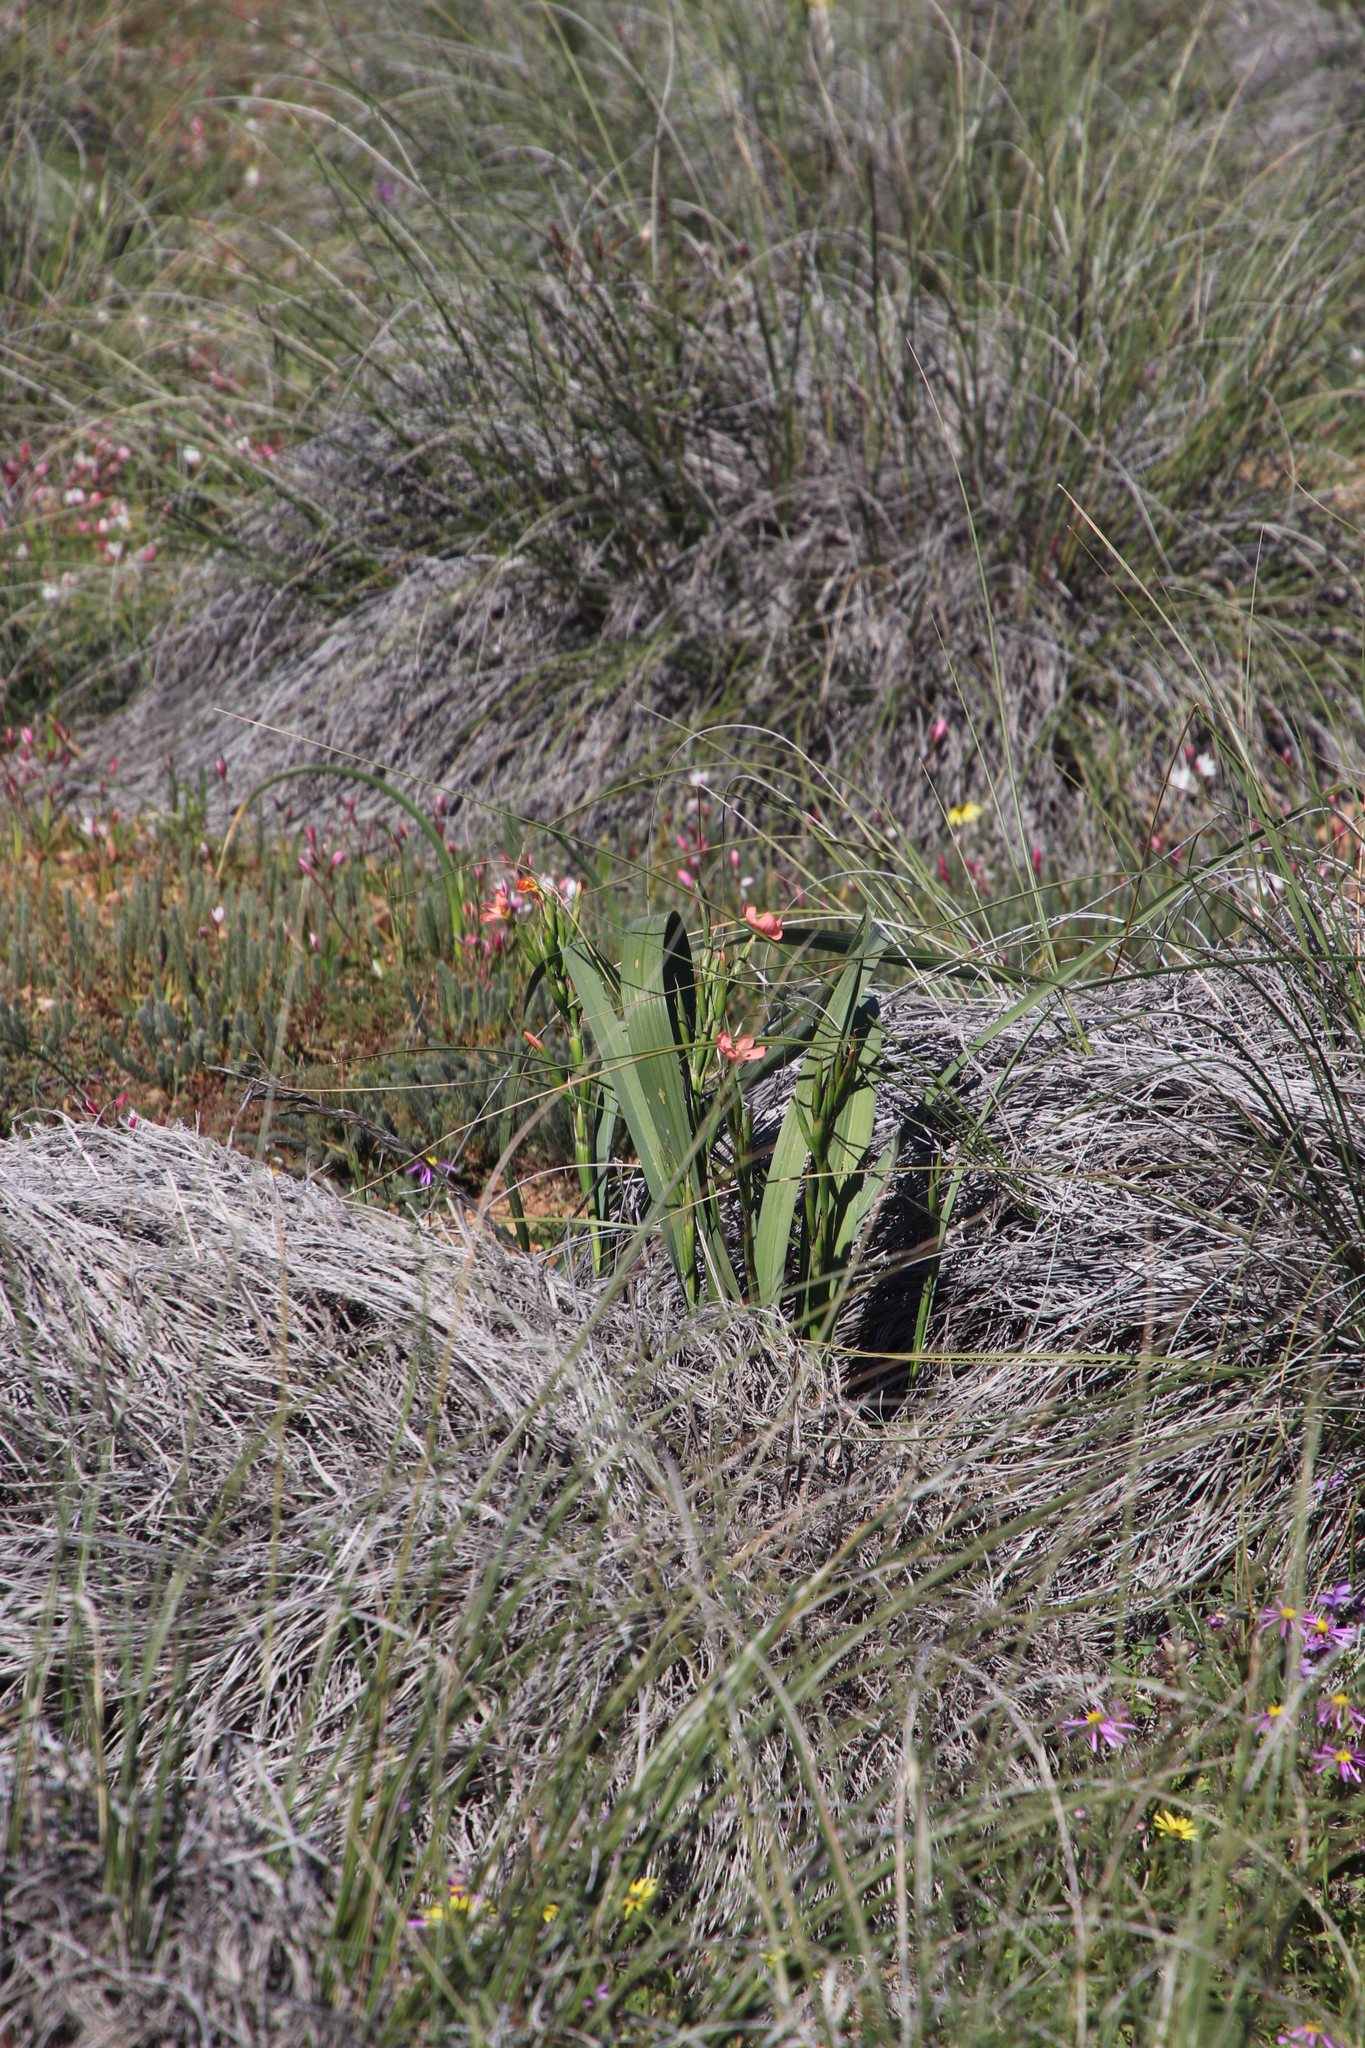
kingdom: Plantae
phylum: Tracheophyta
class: Liliopsida
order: Asparagales
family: Iridaceae
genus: Moraea
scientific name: Moraea bifida
